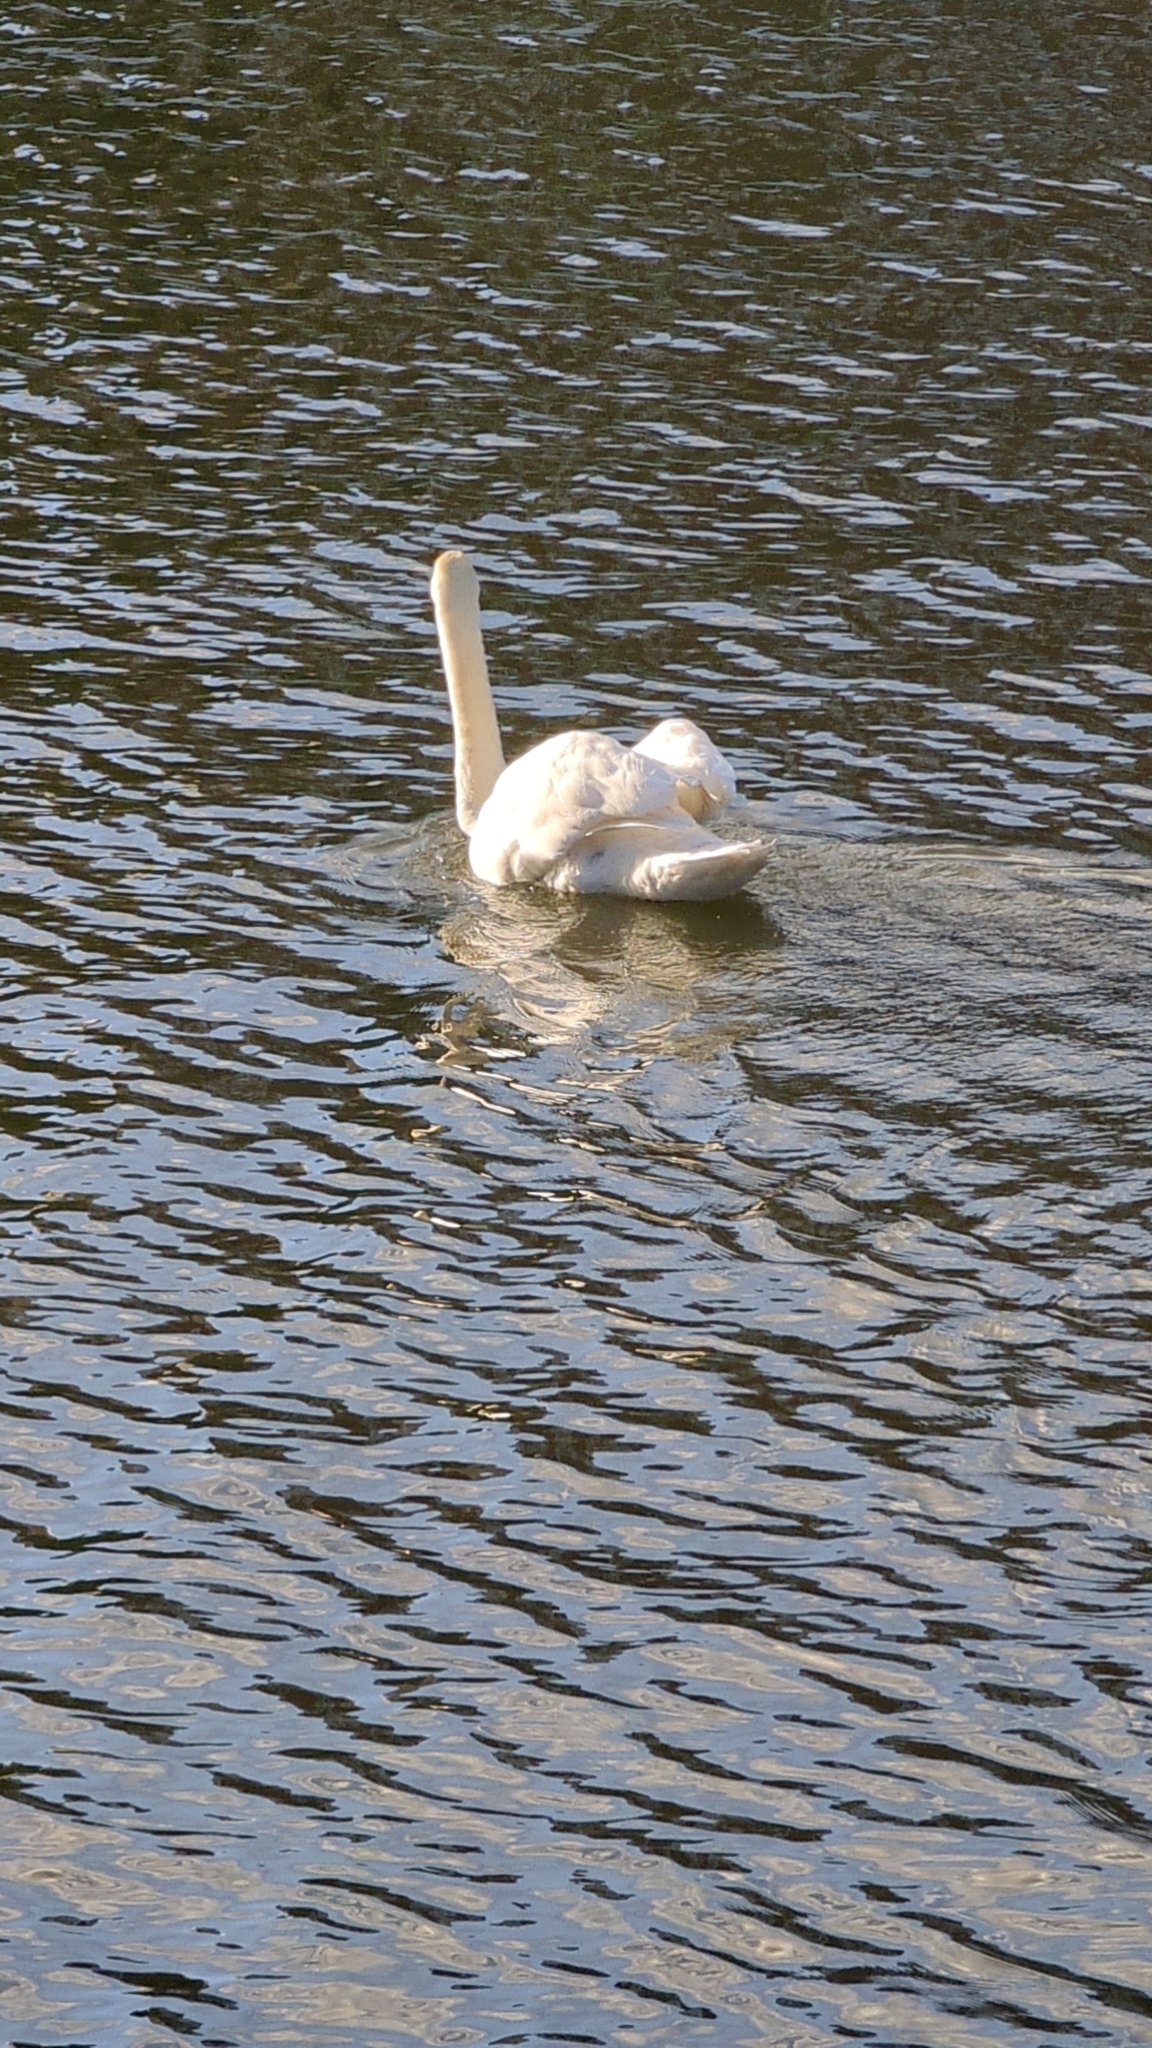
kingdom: Animalia
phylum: Chordata
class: Aves
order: Anseriformes
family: Anatidae
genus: Cygnus
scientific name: Cygnus olor
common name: Mute swan
